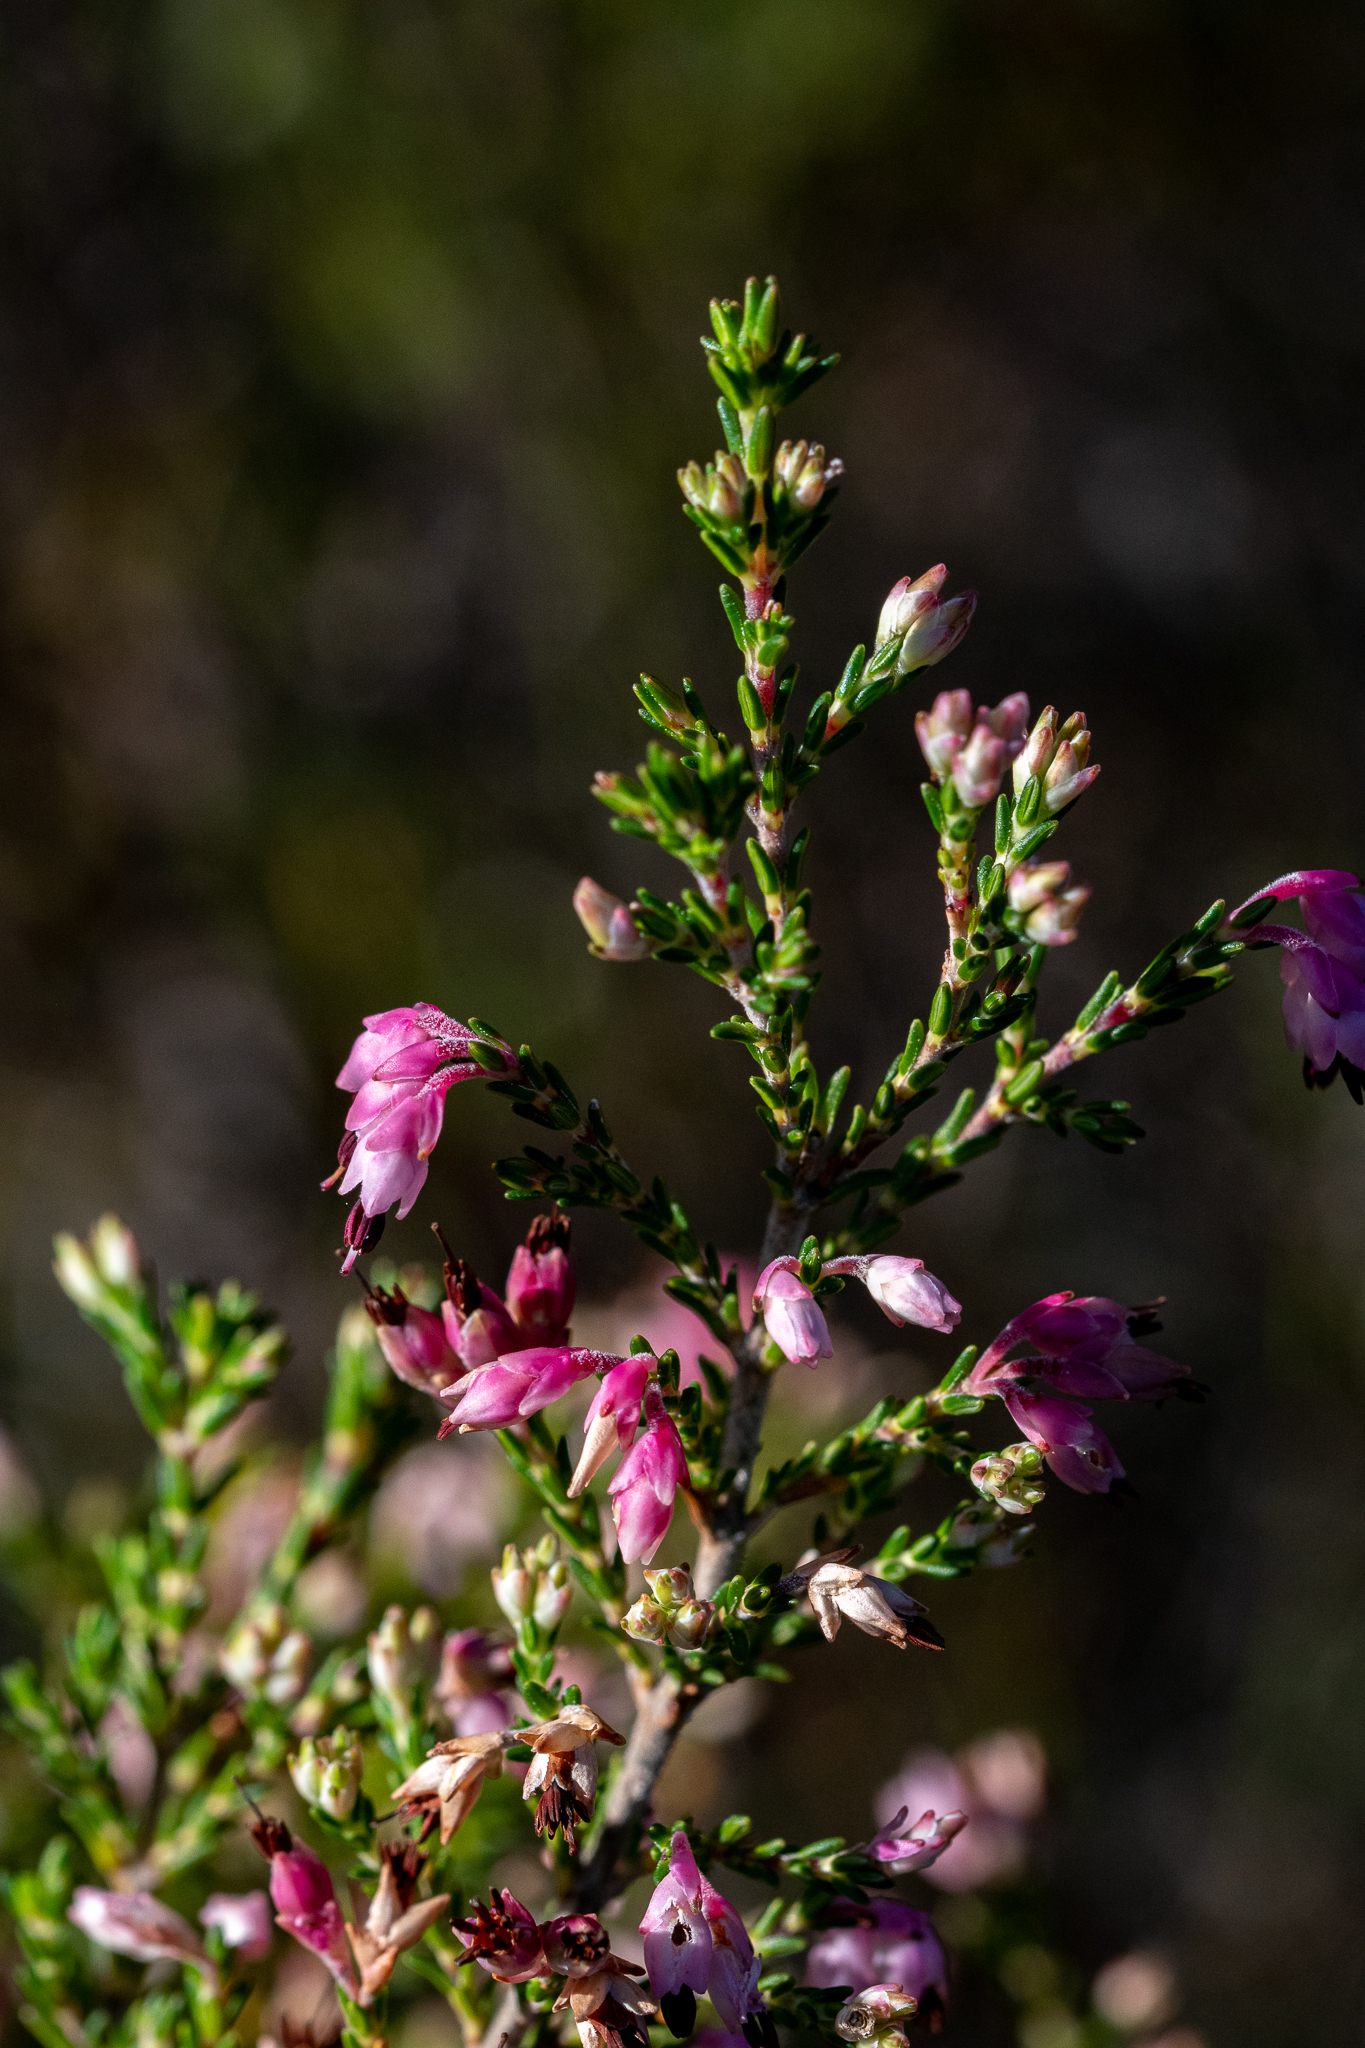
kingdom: Plantae
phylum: Tracheophyta
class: Magnoliopsida
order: Ericales
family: Ericaceae
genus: Erica
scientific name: Erica placentiflora
